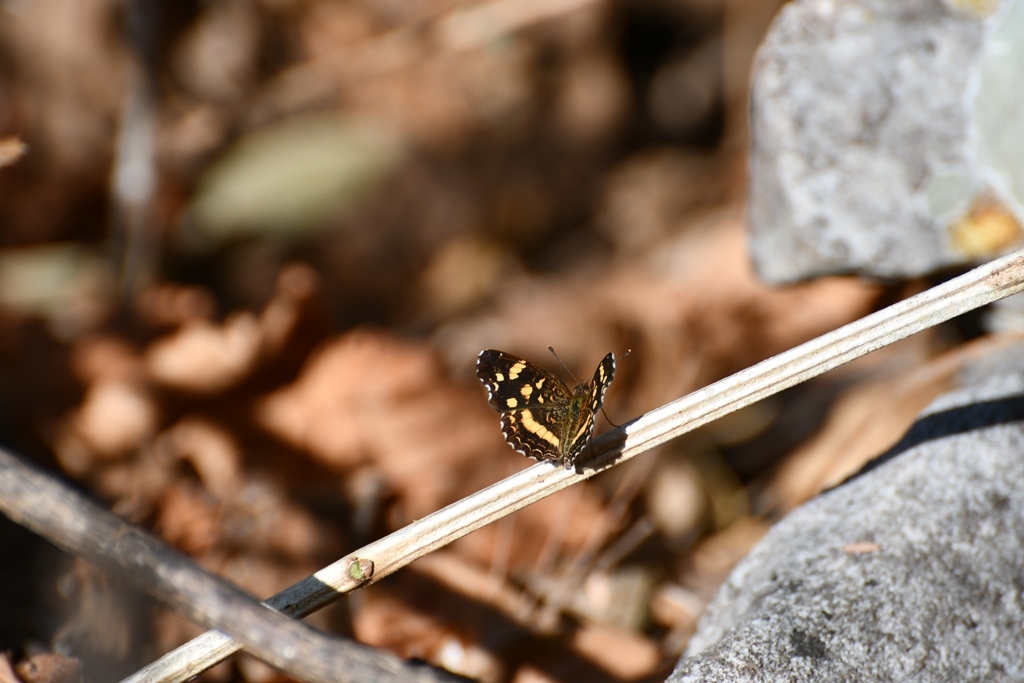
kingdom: Animalia
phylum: Arthropoda
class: Insecta
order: Lepidoptera
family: Nymphalidae
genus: Anthanassa
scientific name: Anthanassa tulcis
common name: Pale-banded crescent
